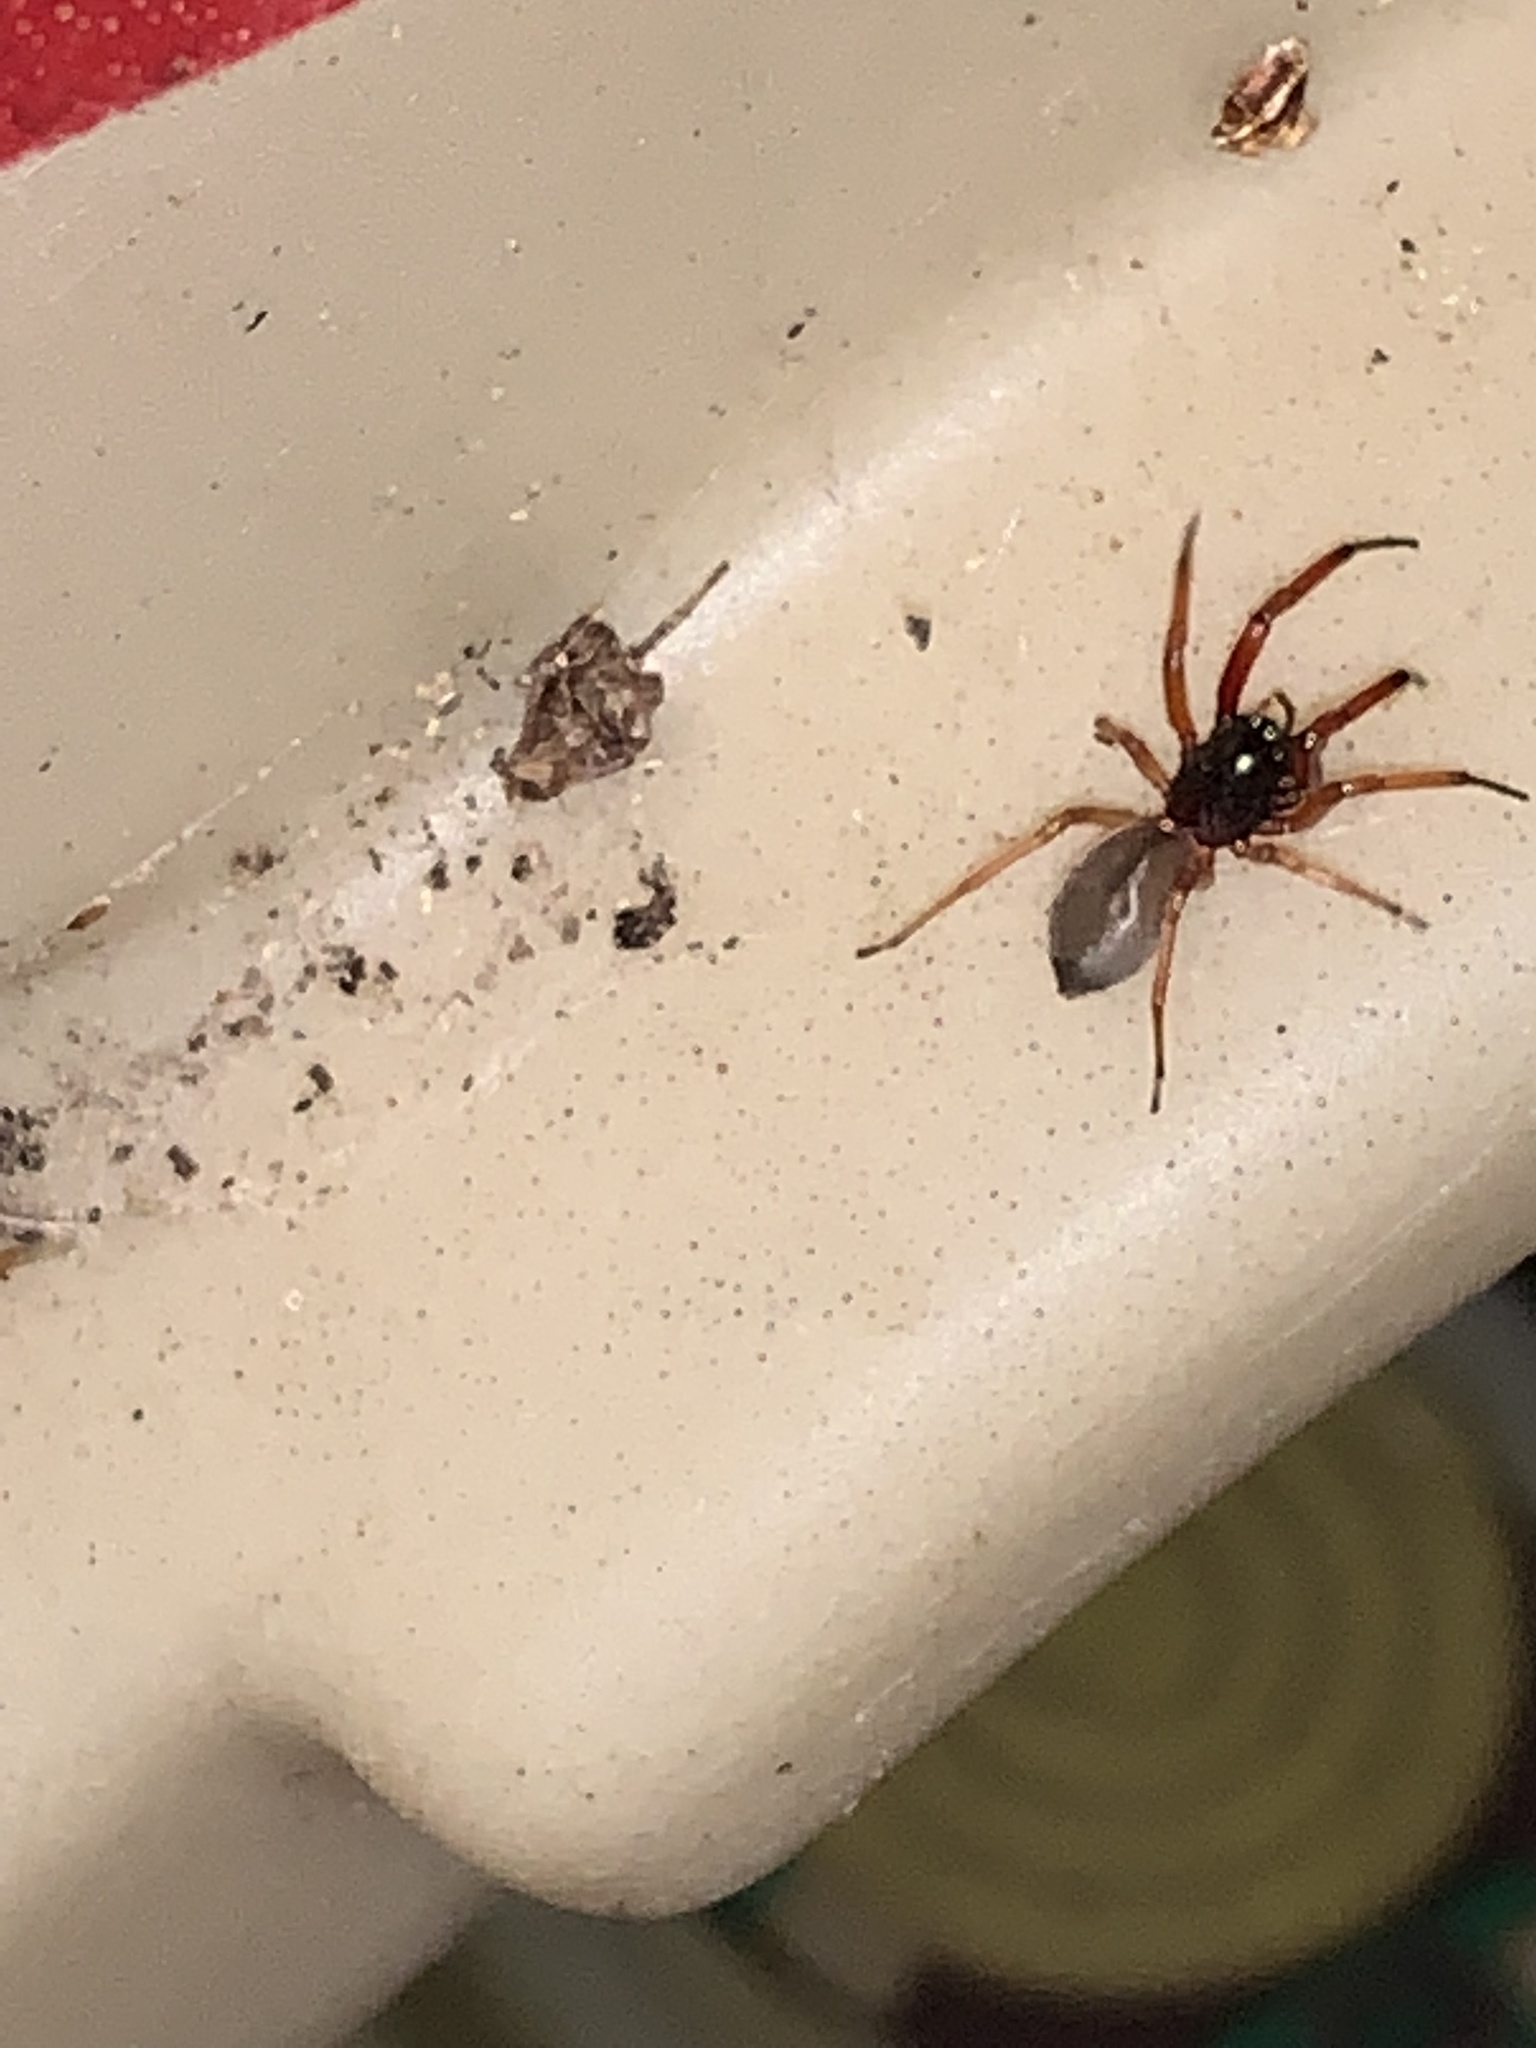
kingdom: Animalia
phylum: Arthropoda
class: Arachnida
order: Araneae
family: Trachelidae
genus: Trachelas
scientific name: Trachelas tranquillus
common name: Broad-faced sac spider
